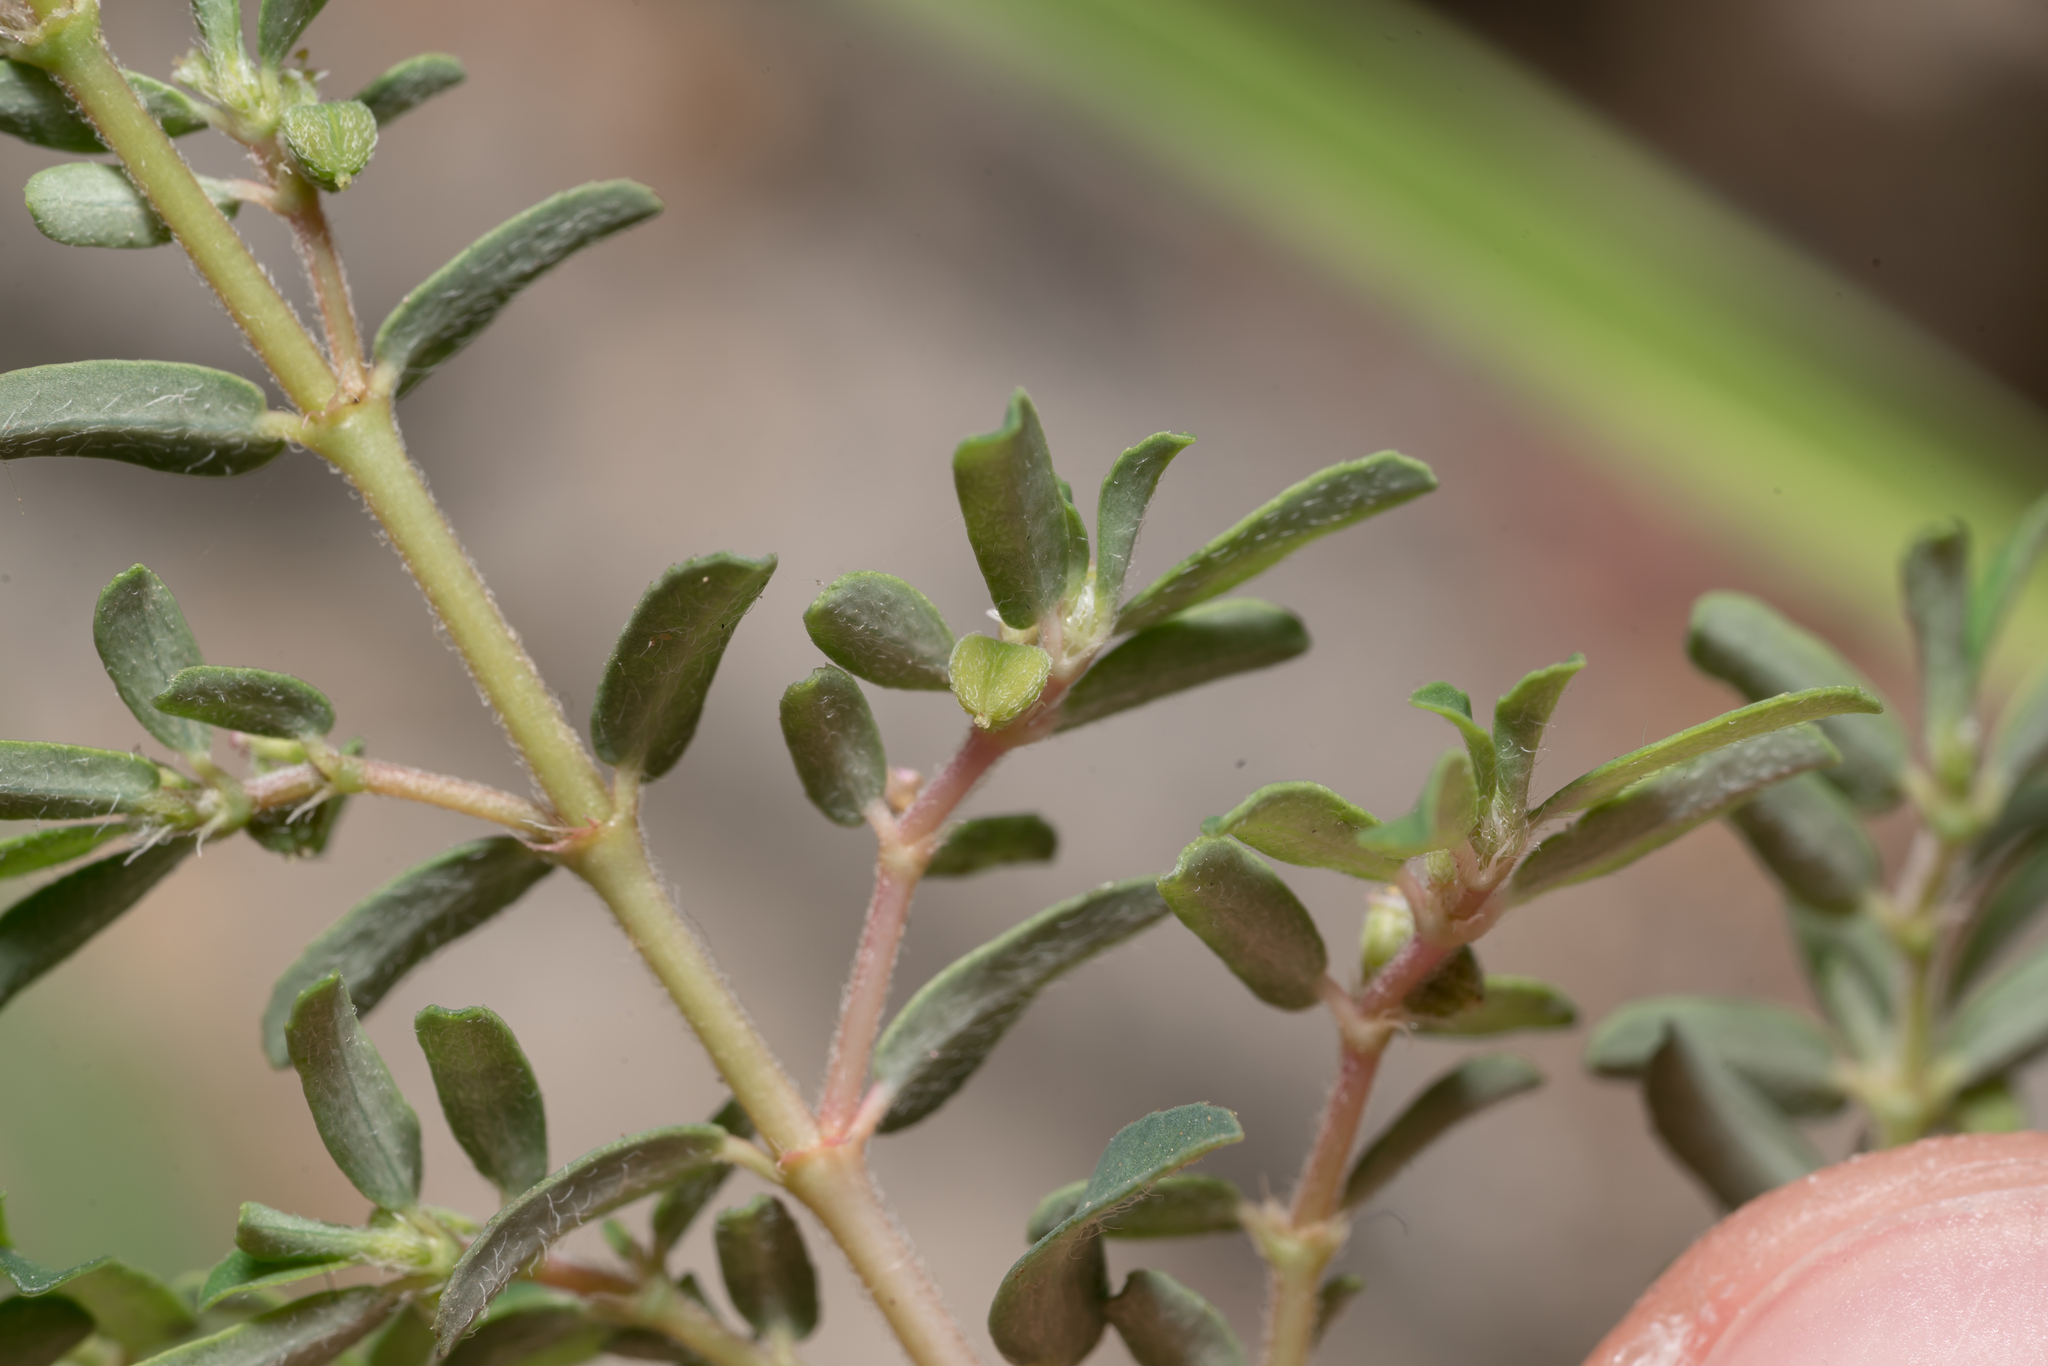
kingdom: Plantae
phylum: Tracheophyta
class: Magnoliopsida
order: Malpighiales
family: Euphorbiaceae
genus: Euphorbia
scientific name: Euphorbia maculata
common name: Spotted spurge
